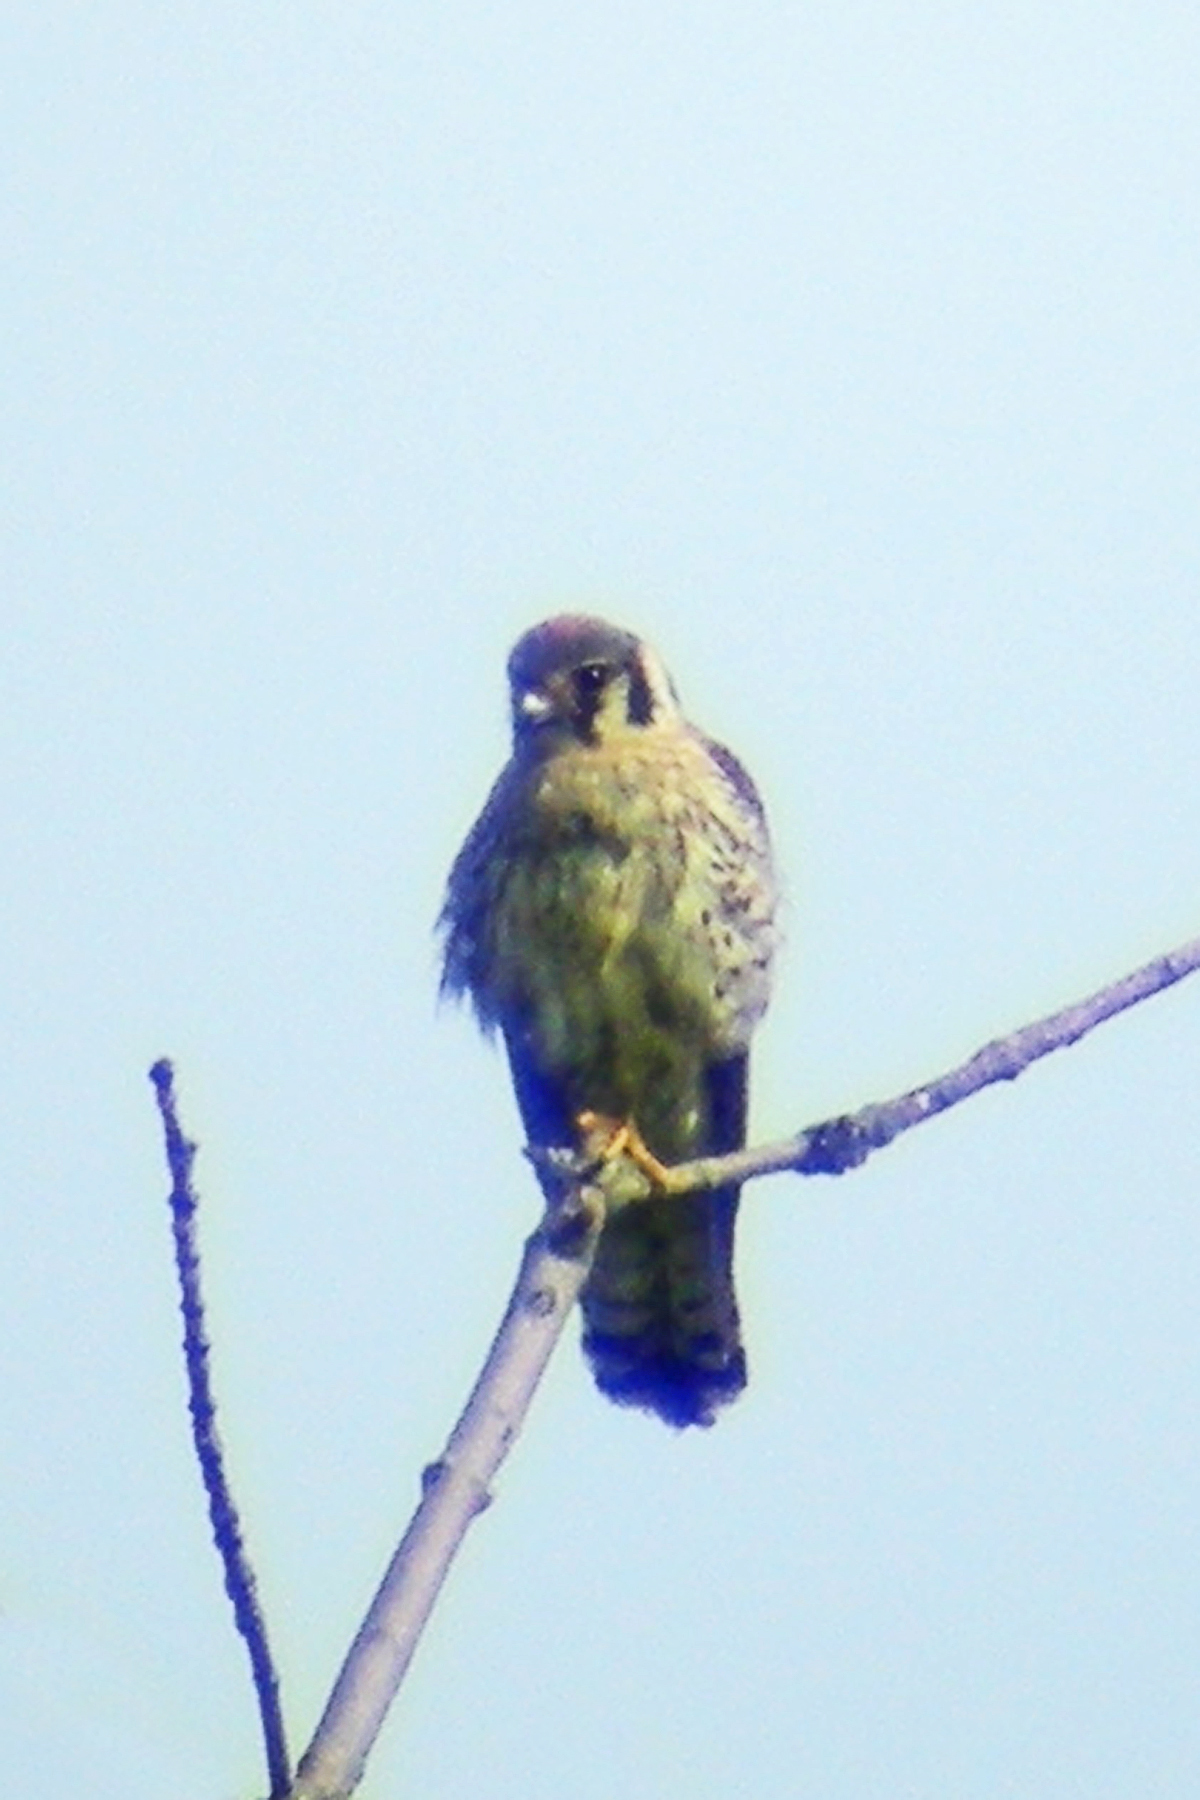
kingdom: Animalia
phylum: Chordata
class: Aves
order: Falconiformes
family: Falconidae
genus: Falco
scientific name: Falco sparverius
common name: American kestrel
